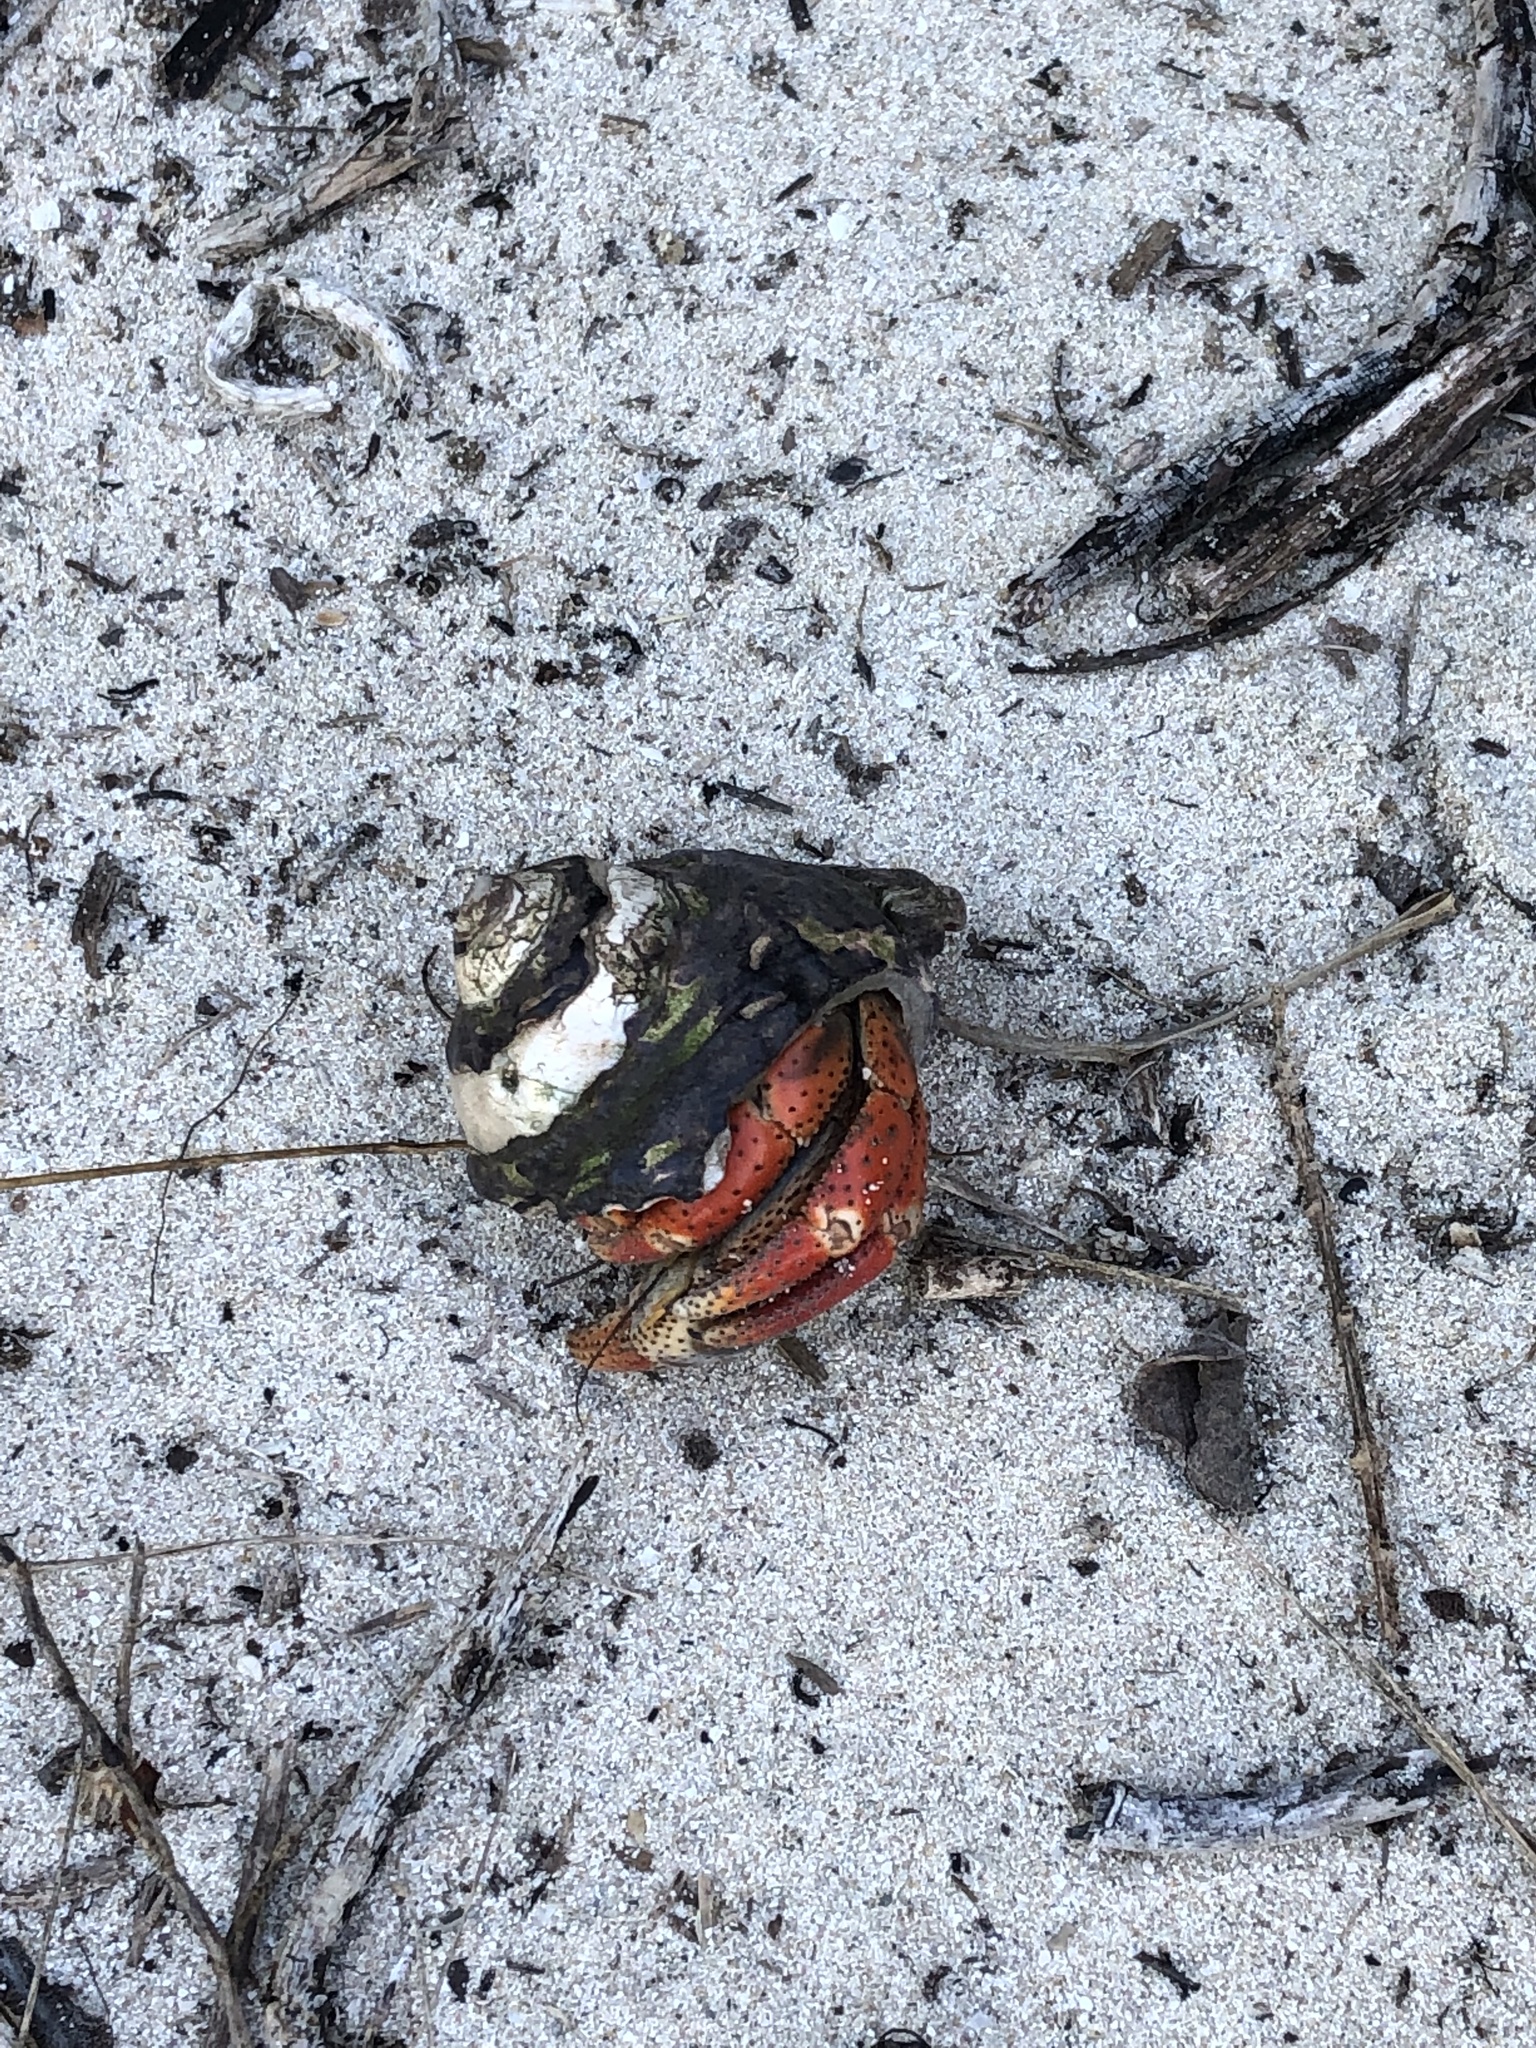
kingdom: Animalia
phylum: Arthropoda
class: Malacostraca
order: Decapoda
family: Coenobitidae
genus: Coenobita
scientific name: Coenobita clypeatus
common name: Caribbean hermit crab
